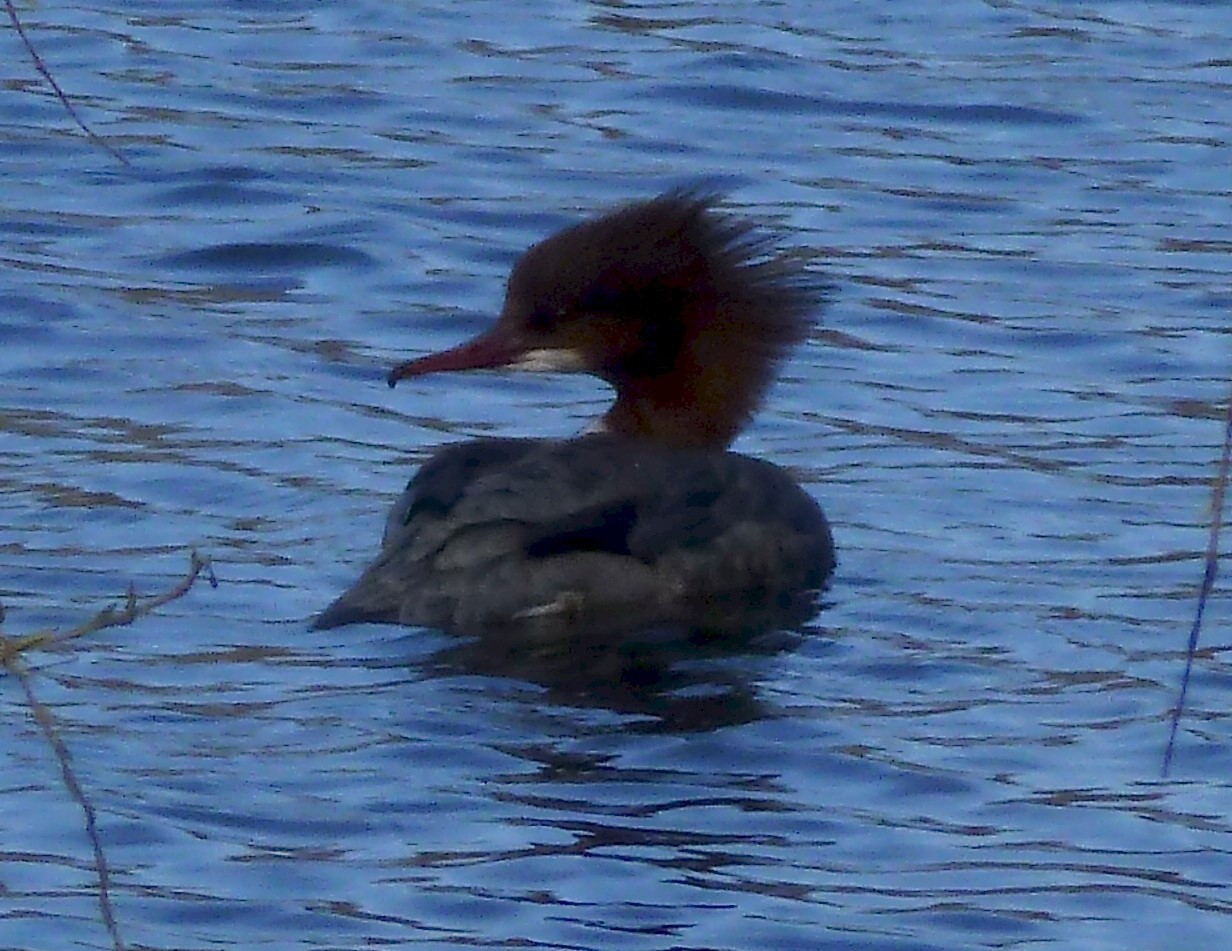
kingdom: Animalia
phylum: Chordata
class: Aves
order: Anseriformes
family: Anatidae
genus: Mergus
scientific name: Mergus merganser
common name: Common merganser
